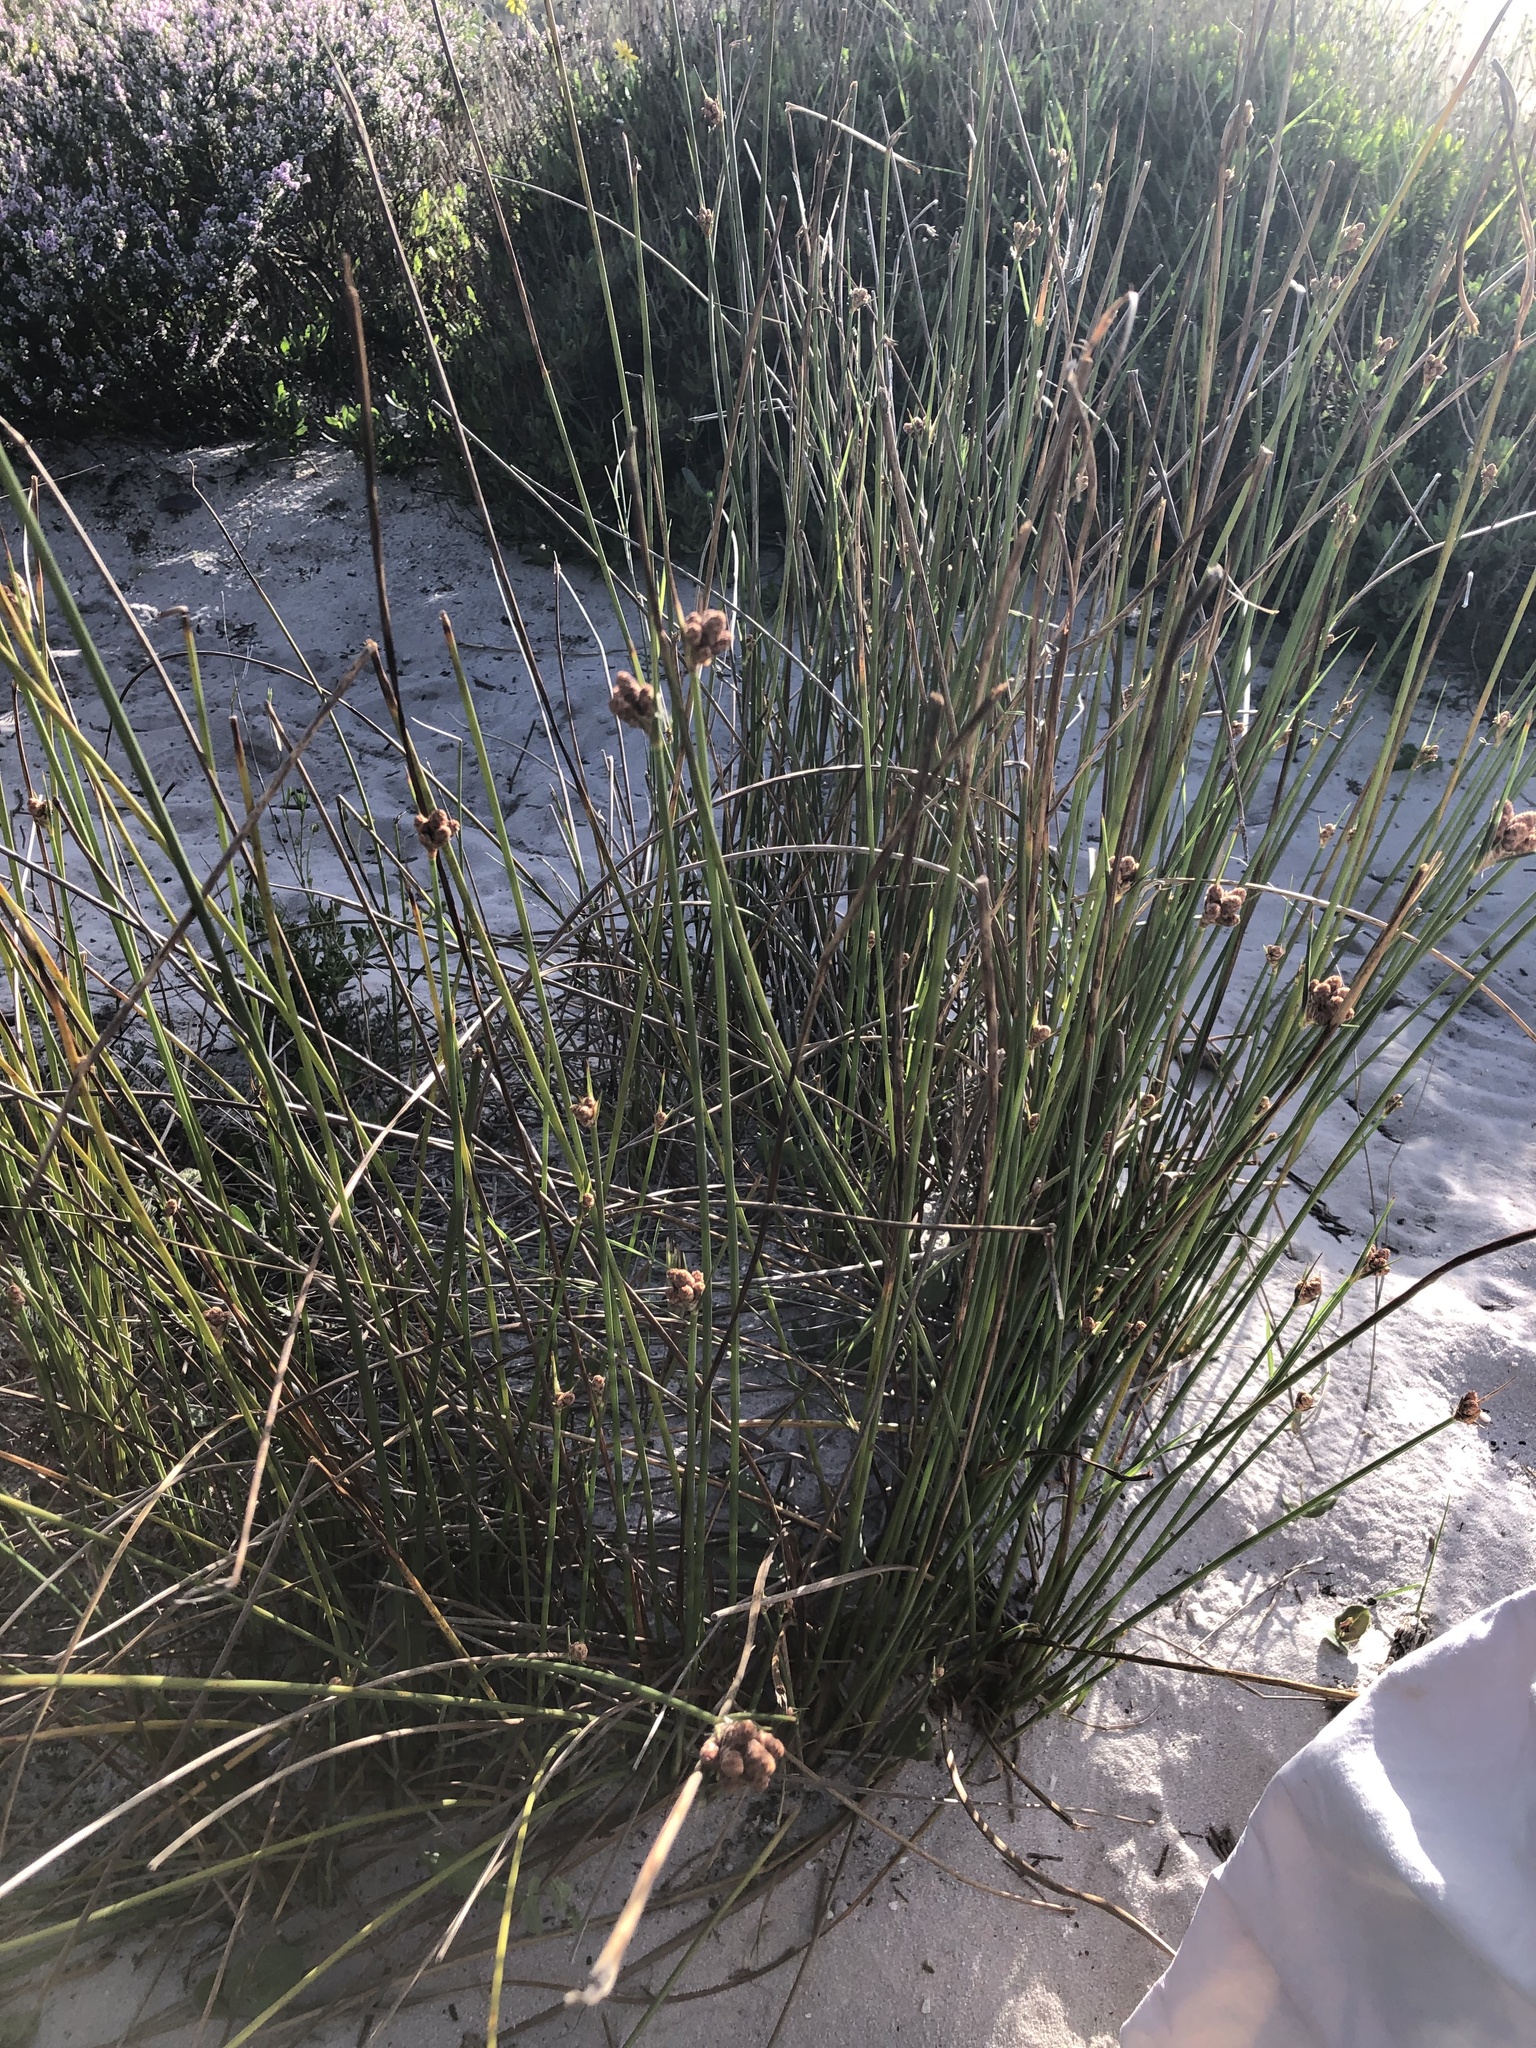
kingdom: Plantae
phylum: Tracheophyta
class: Liliopsida
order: Poales
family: Cyperaceae
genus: Hellmuthia
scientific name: Hellmuthia membranacea
